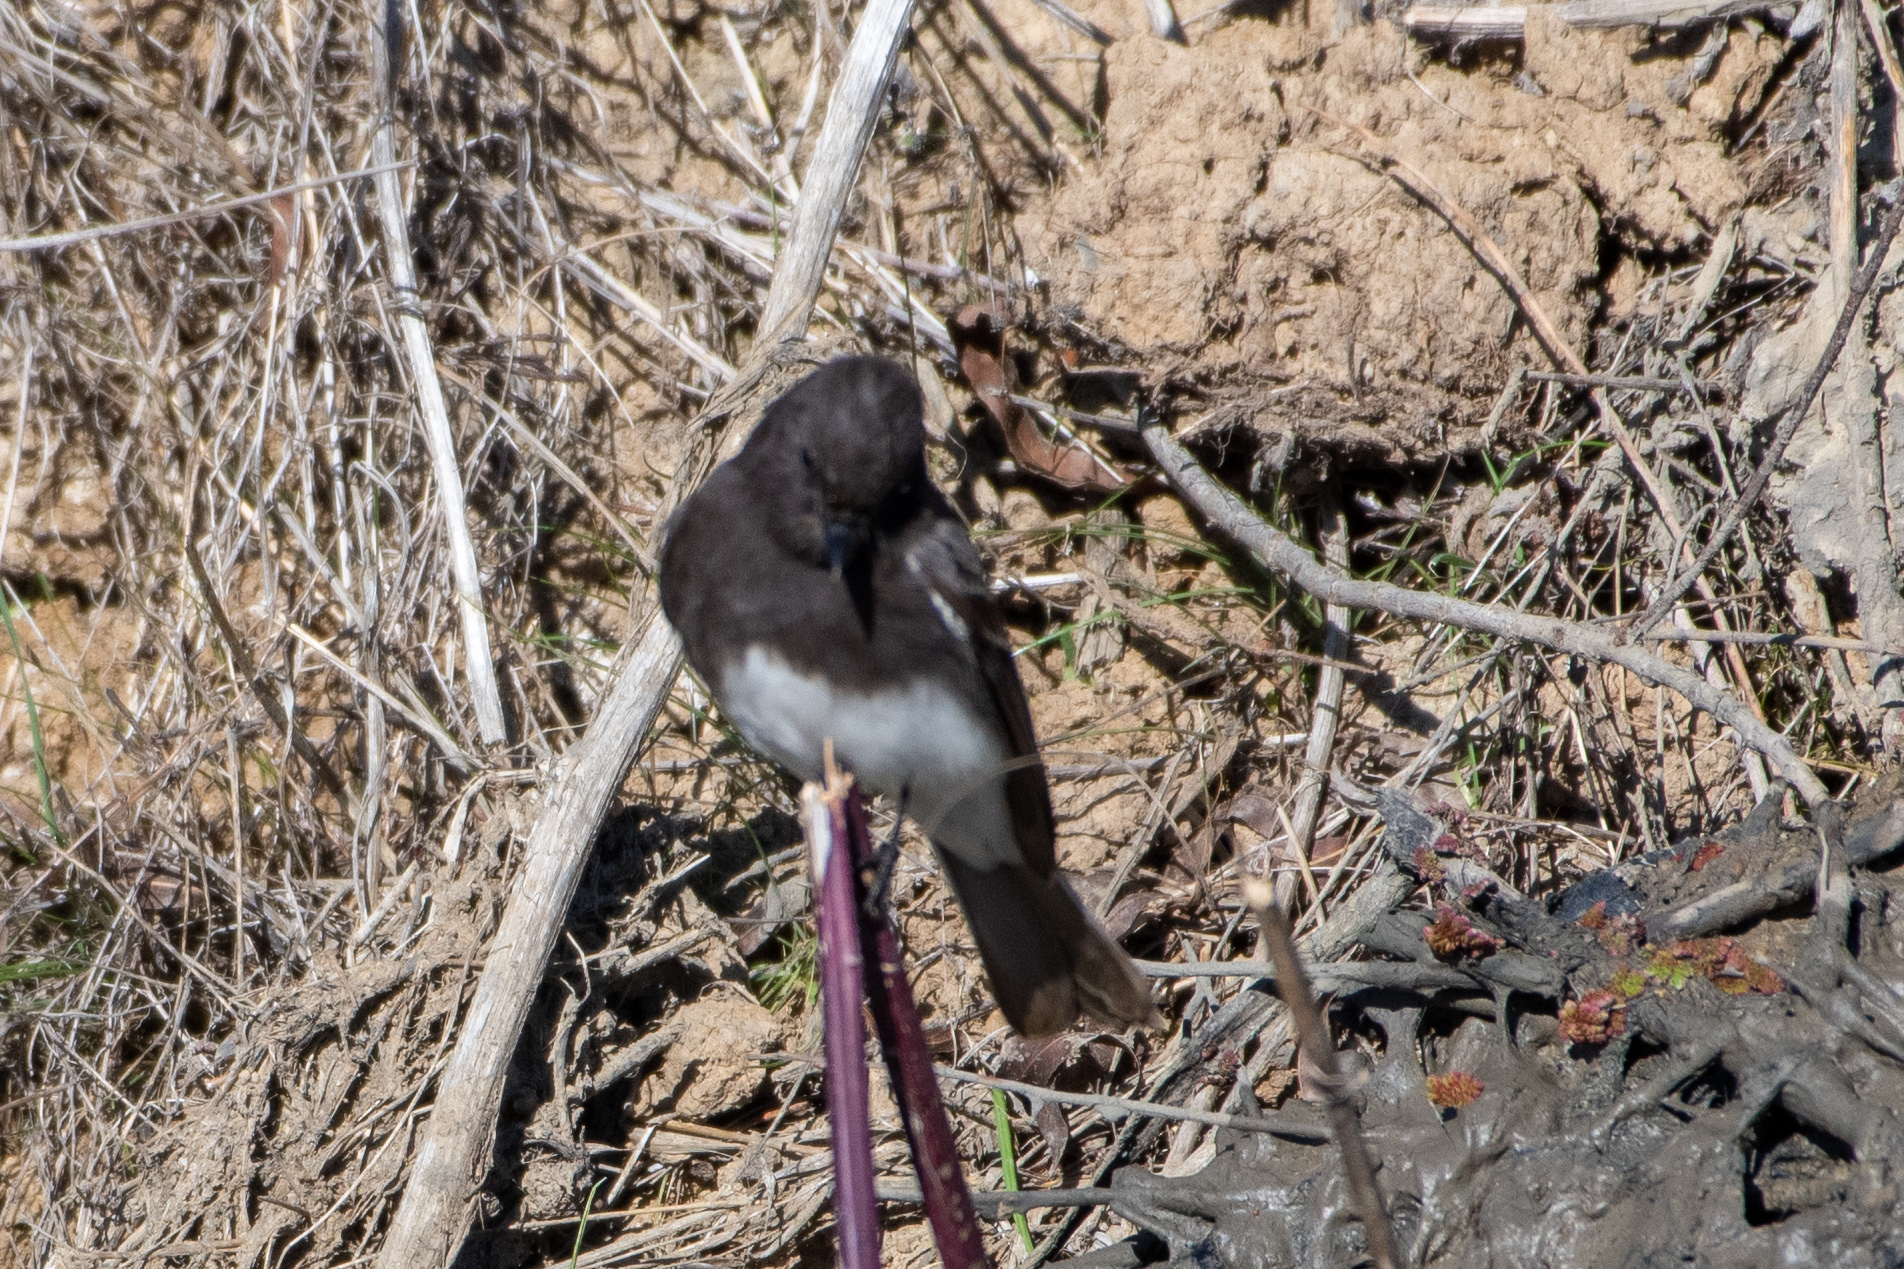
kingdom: Animalia
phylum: Chordata
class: Aves
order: Passeriformes
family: Tyrannidae
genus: Sayornis
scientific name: Sayornis nigricans
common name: Black phoebe
